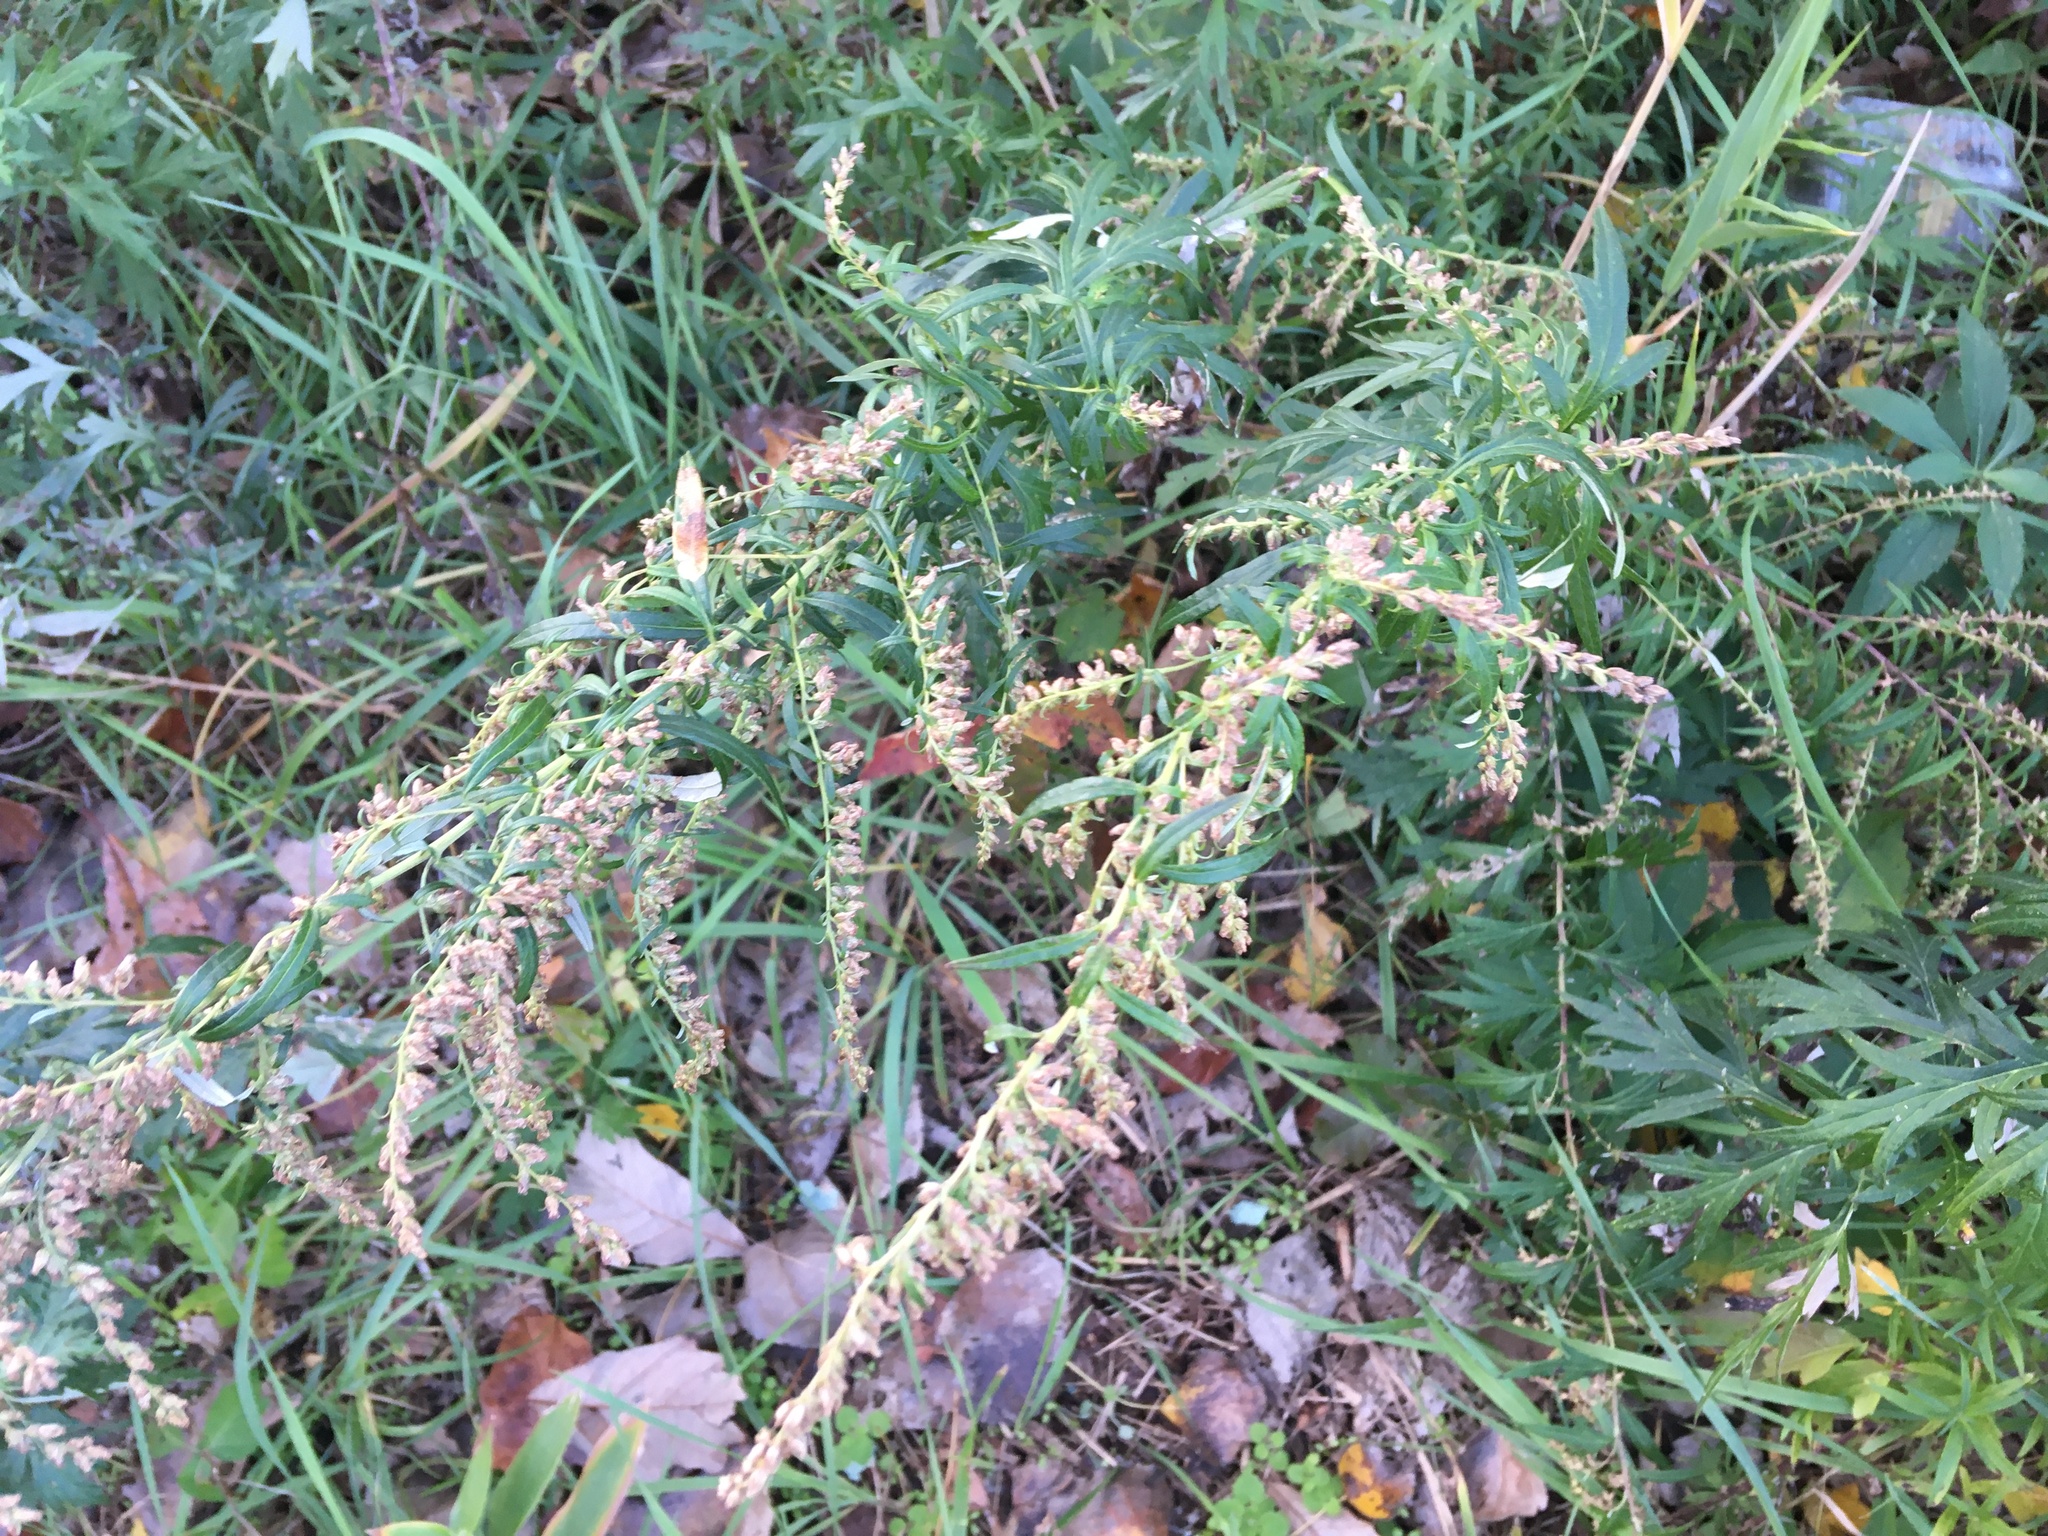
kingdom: Plantae
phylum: Tracheophyta
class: Magnoliopsida
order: Asterales
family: Asteraceae
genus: Artemisia
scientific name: Artemisia vulgaris
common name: Mugwort
